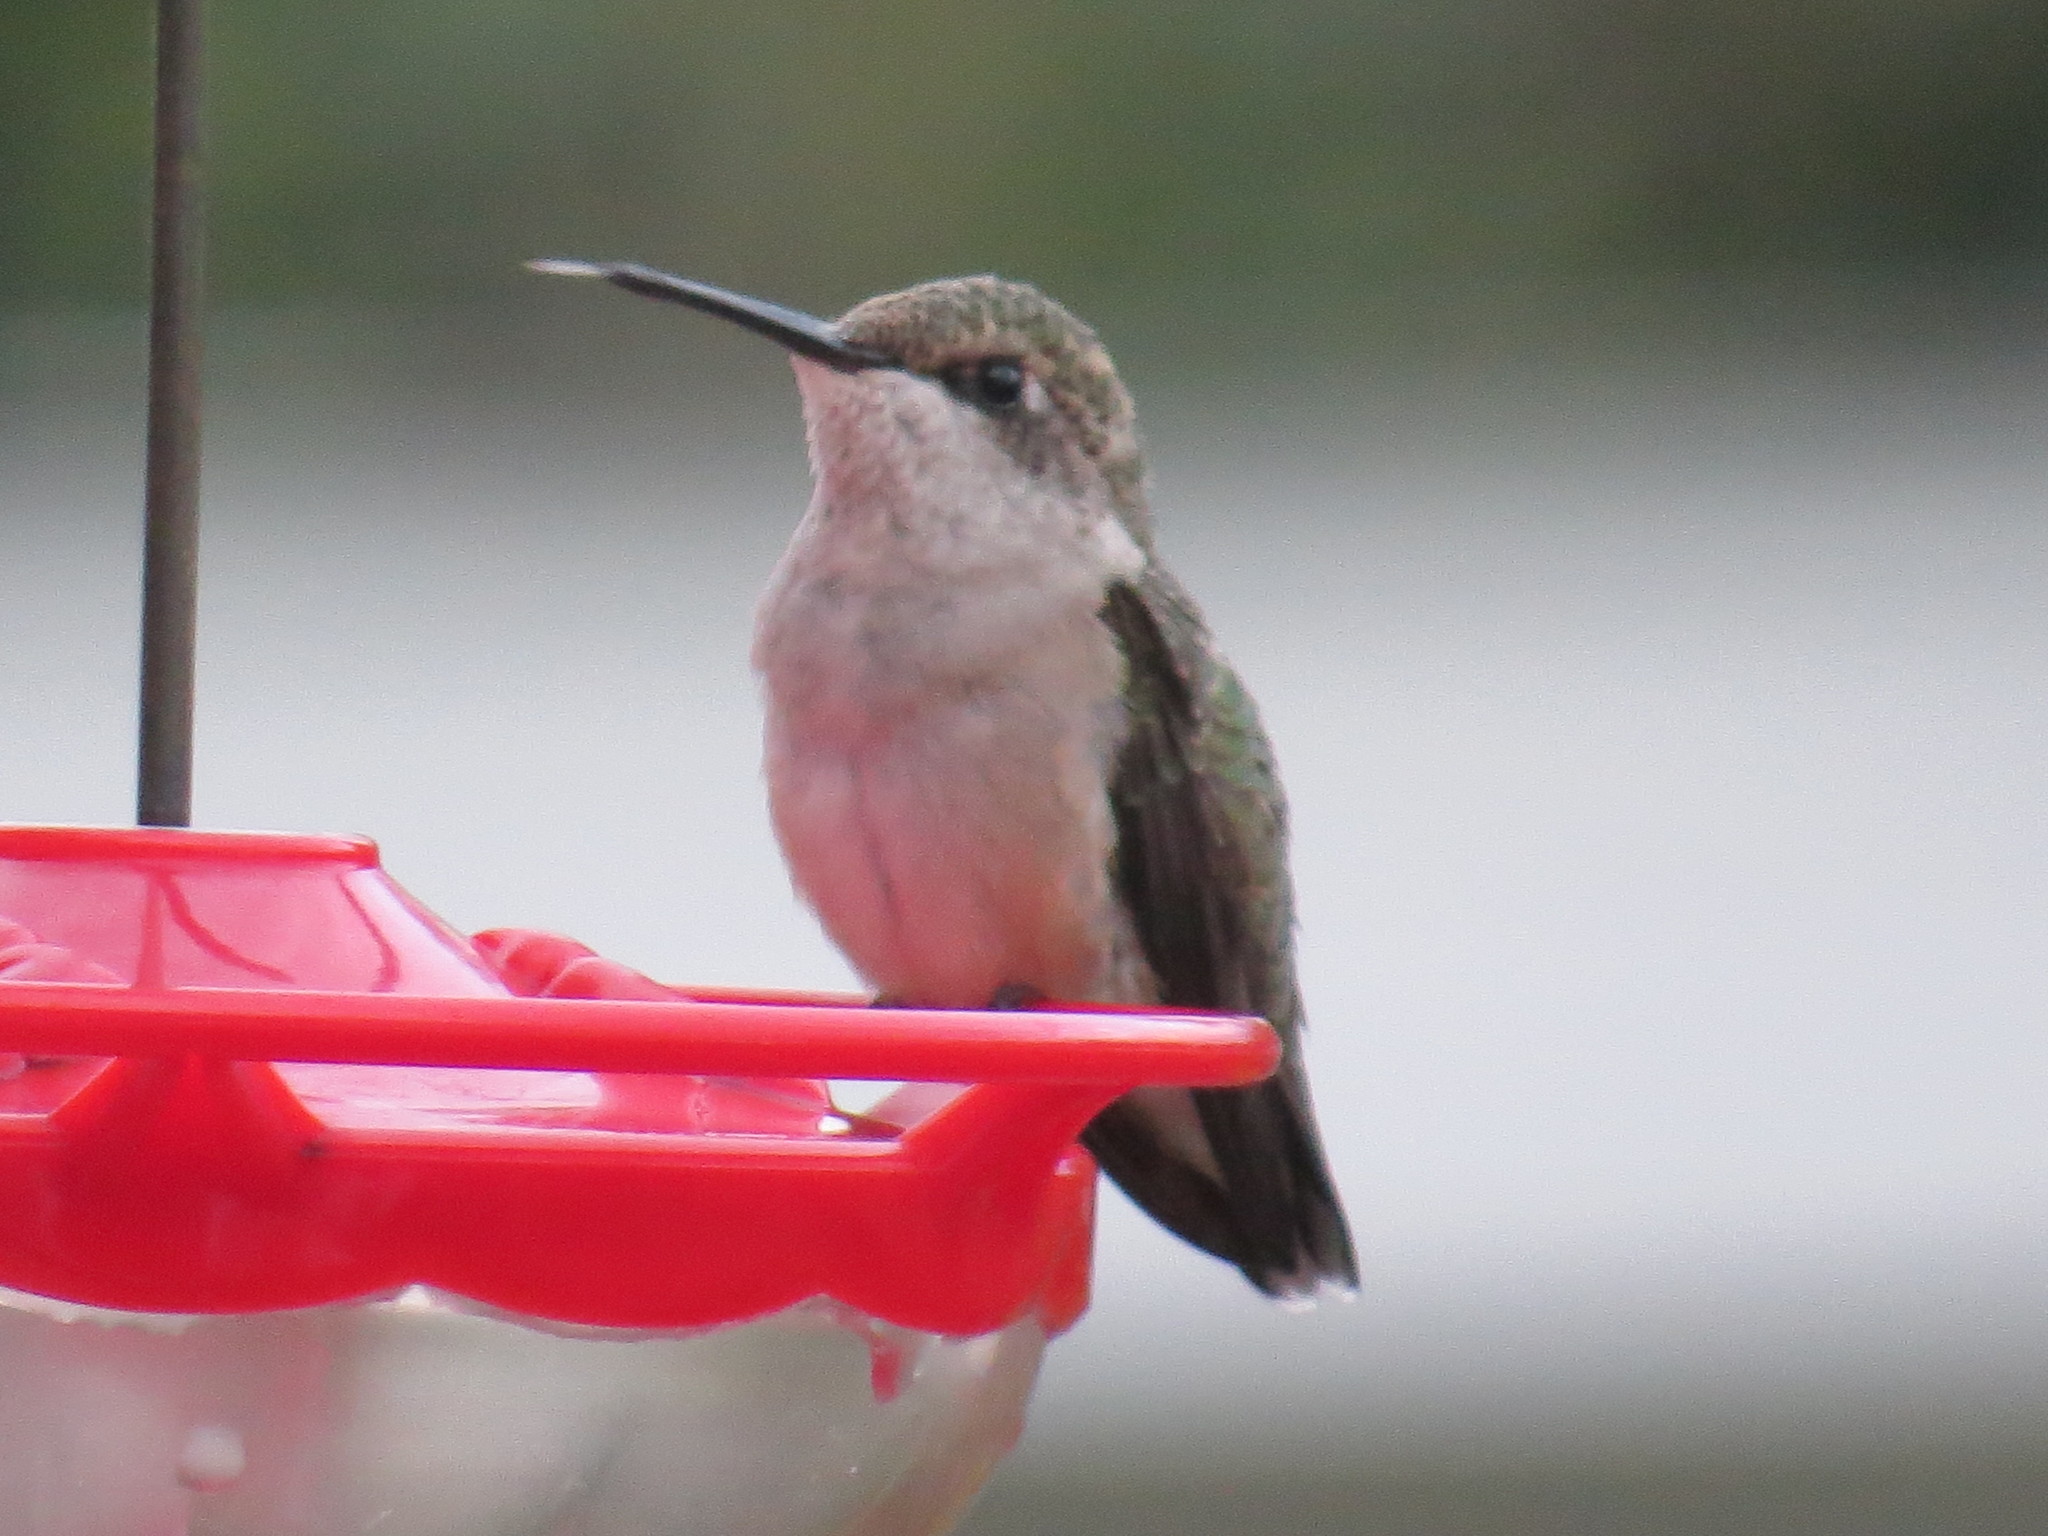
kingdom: Animalia
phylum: Chordata
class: Aves
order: Apodiformes
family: Trochilidae
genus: Archilochus
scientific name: Archilochus colubris
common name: Ruby-throated hummingbird
